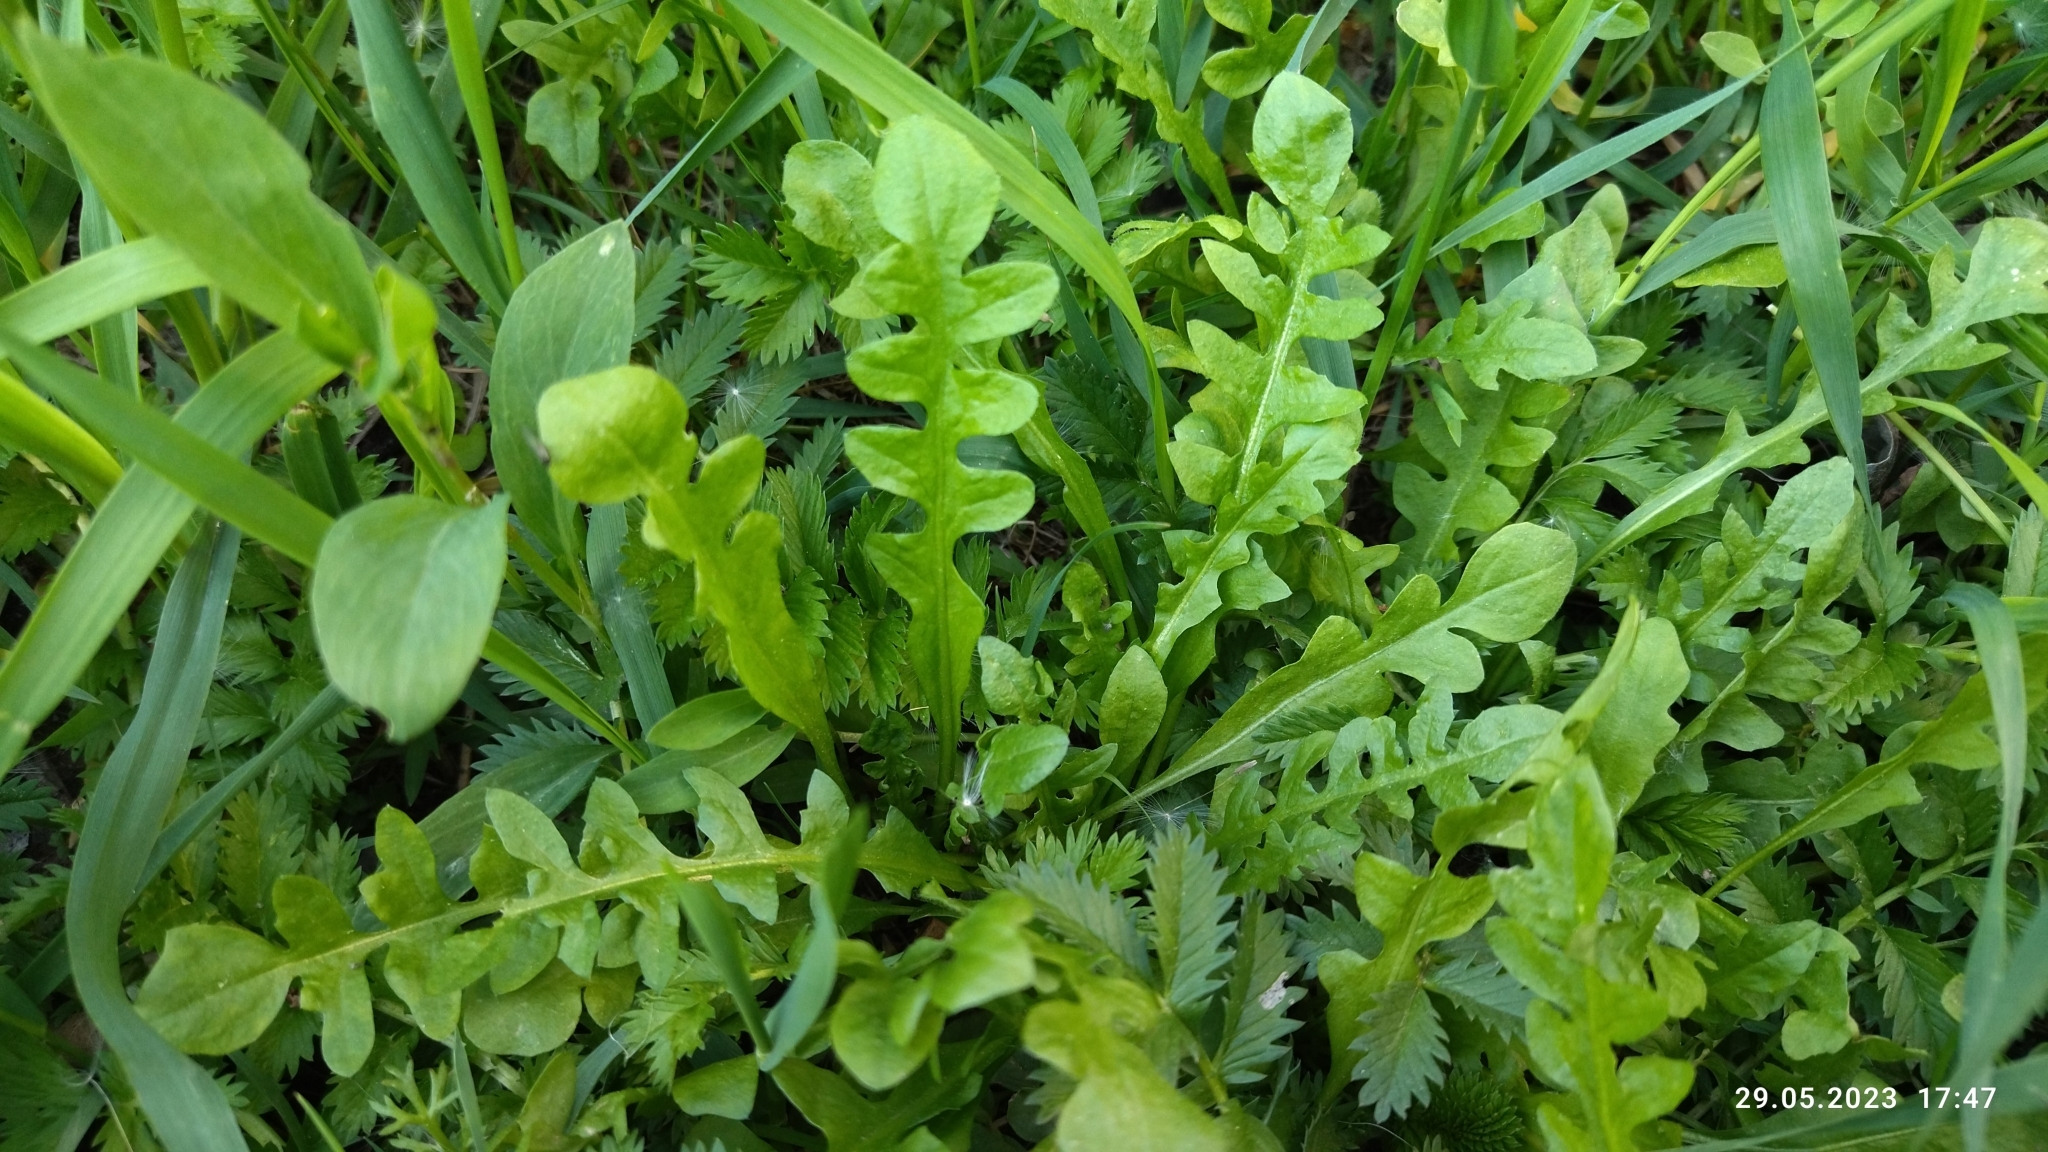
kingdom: Plantae
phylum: Tracheophyta
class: Magnoliopsida
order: Brassicales
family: Brassicaceae
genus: Capsella
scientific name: Capsella bursa-pastoris
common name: Shepherd's purse
